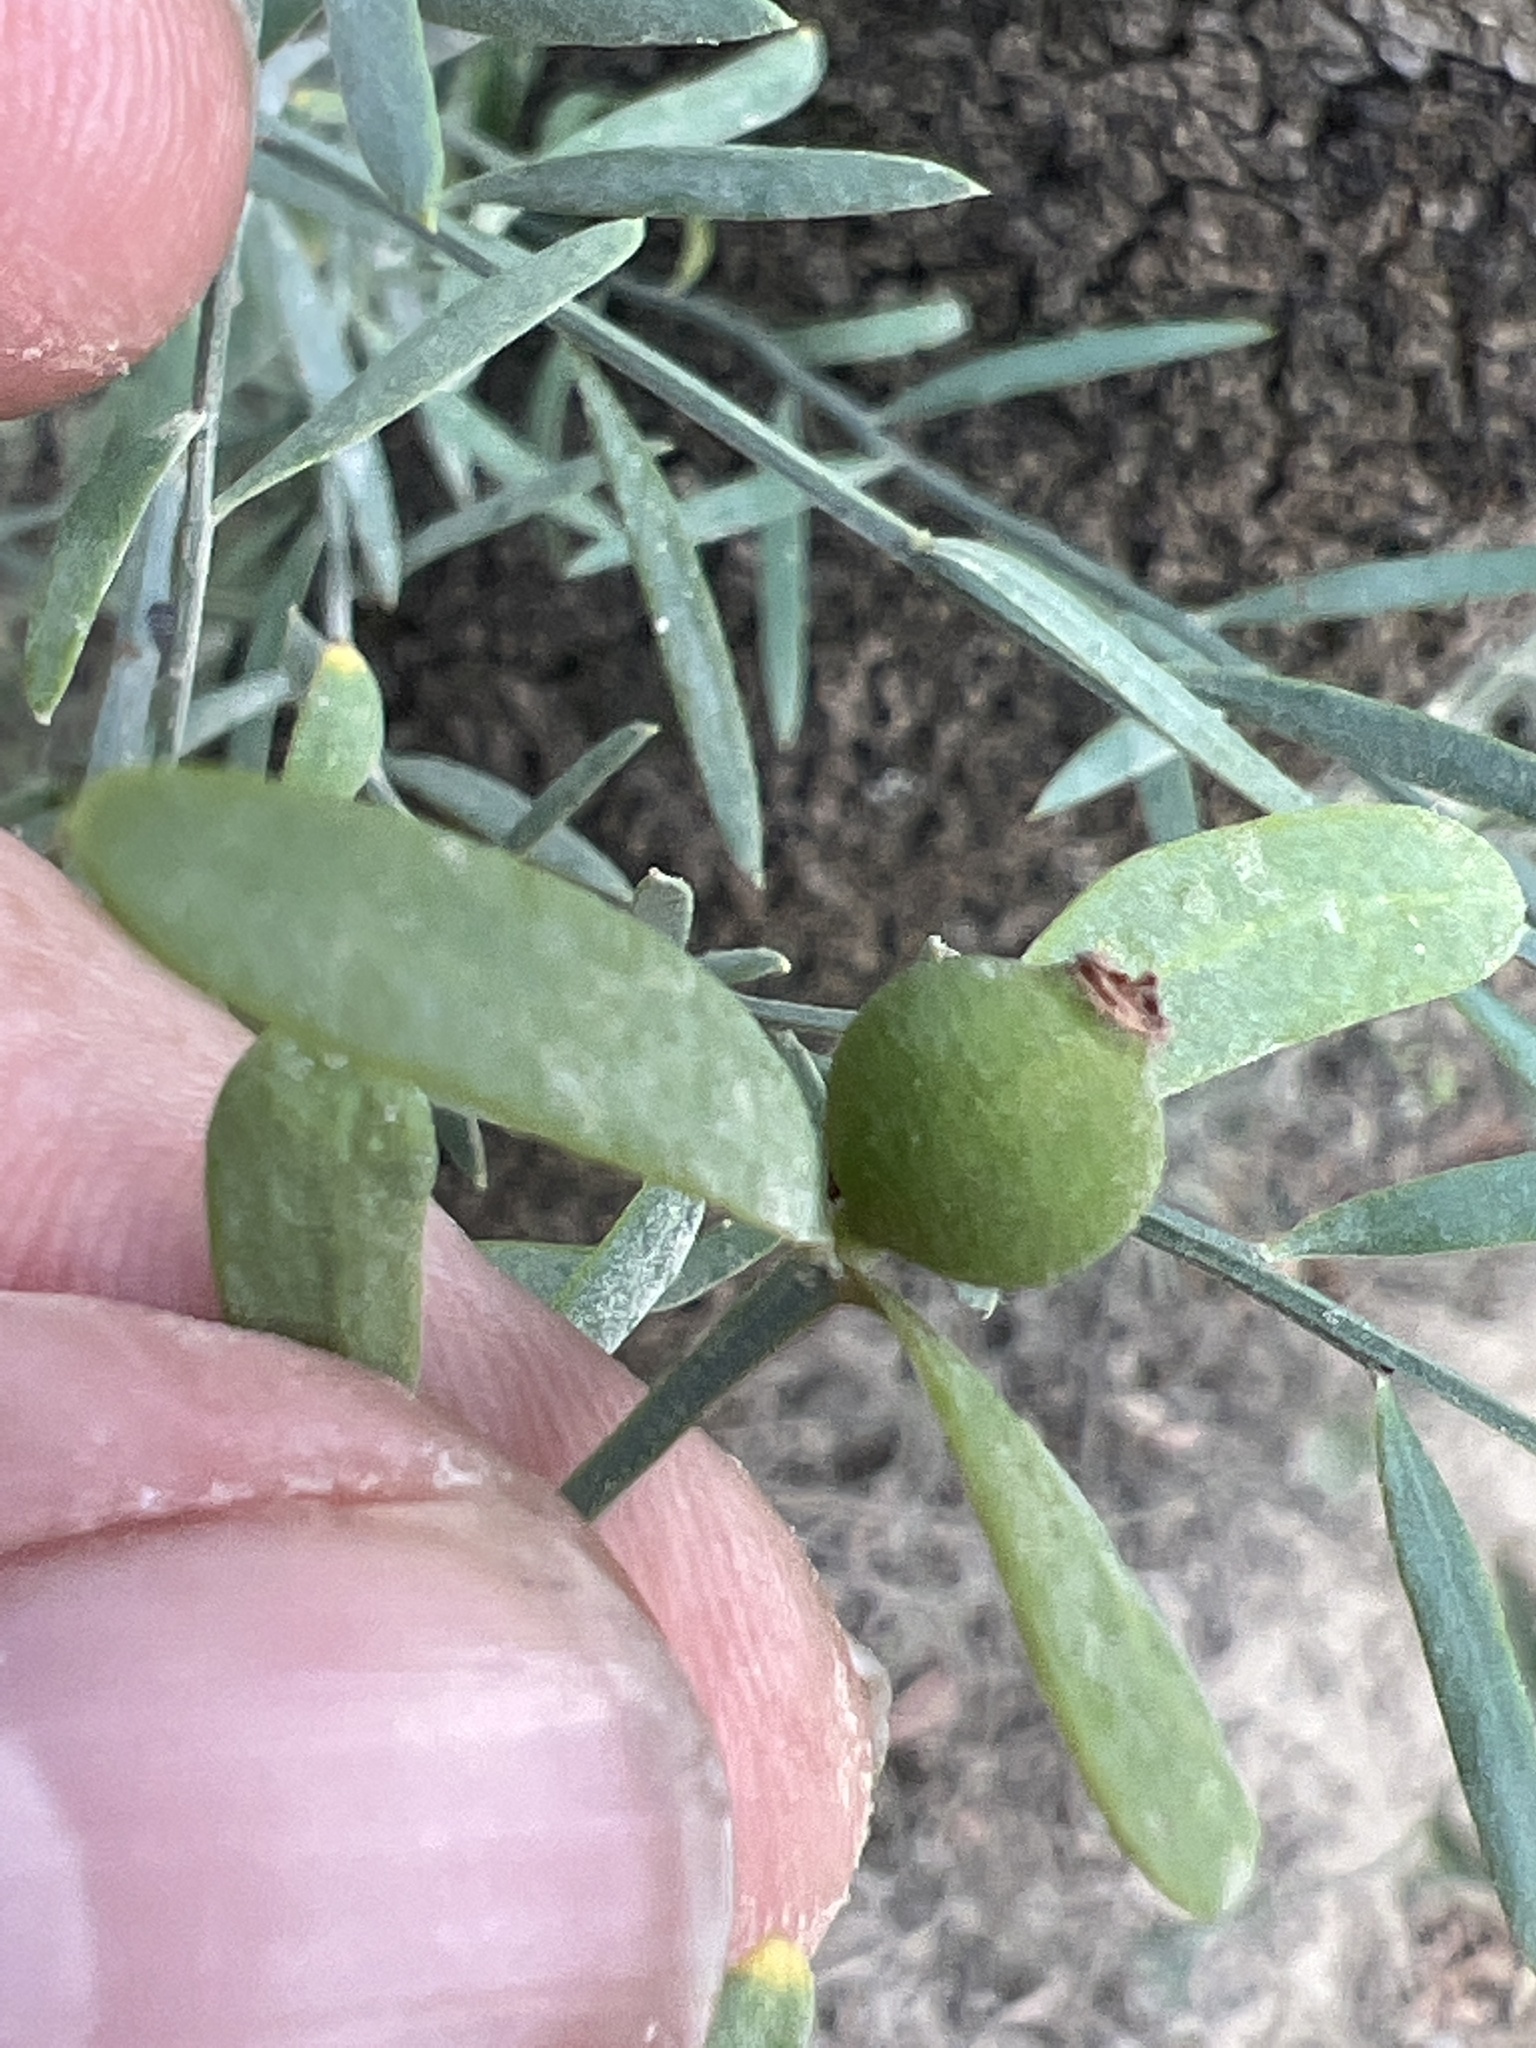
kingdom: Plantae
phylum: Tracheophyta
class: Magnoliopsida
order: Santalales
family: Santalaceae
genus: Osyris
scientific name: Osyris alba
